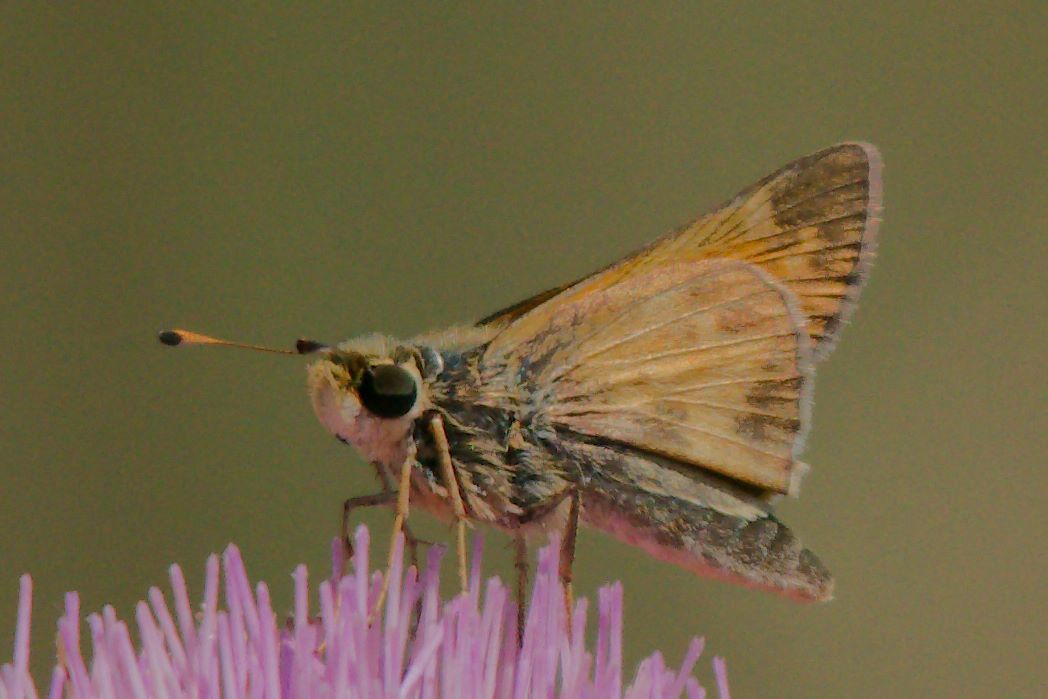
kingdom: Animalia
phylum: Arthropoda
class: Insecta
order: Lepidoptera
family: Hesperiidae
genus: Atalopedes
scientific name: Atalopedes
